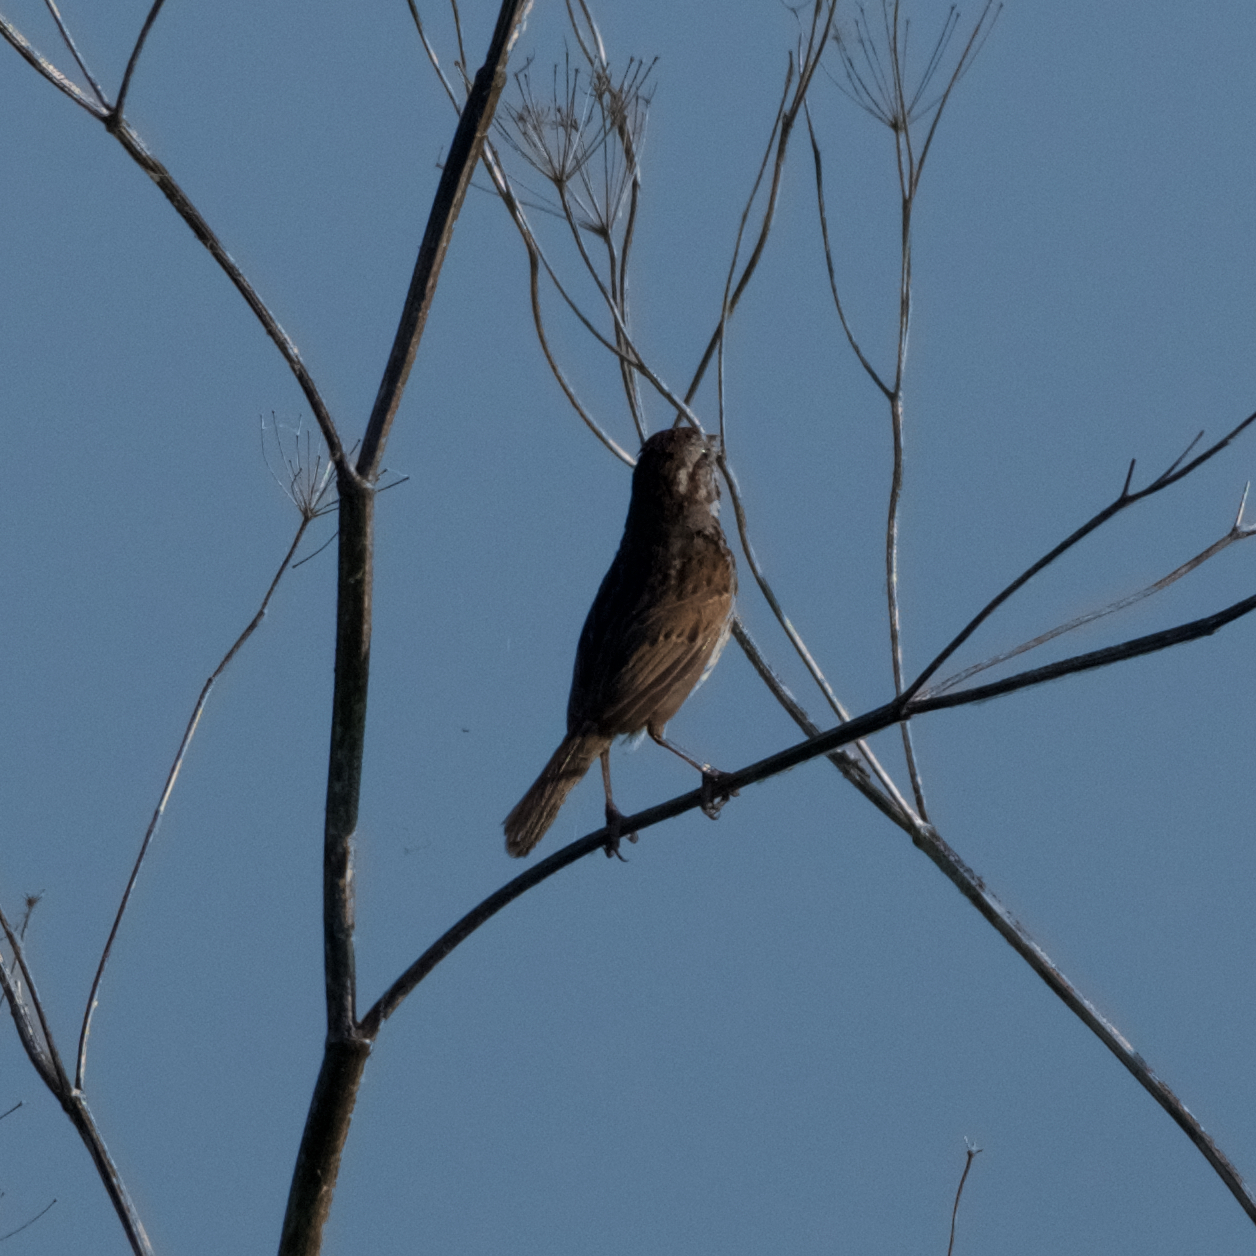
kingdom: Animalia
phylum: Chordata
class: Aves
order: Passeriformes
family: Passerellidae
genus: Melospiza
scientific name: Melospiza melodia
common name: Song sparrow
